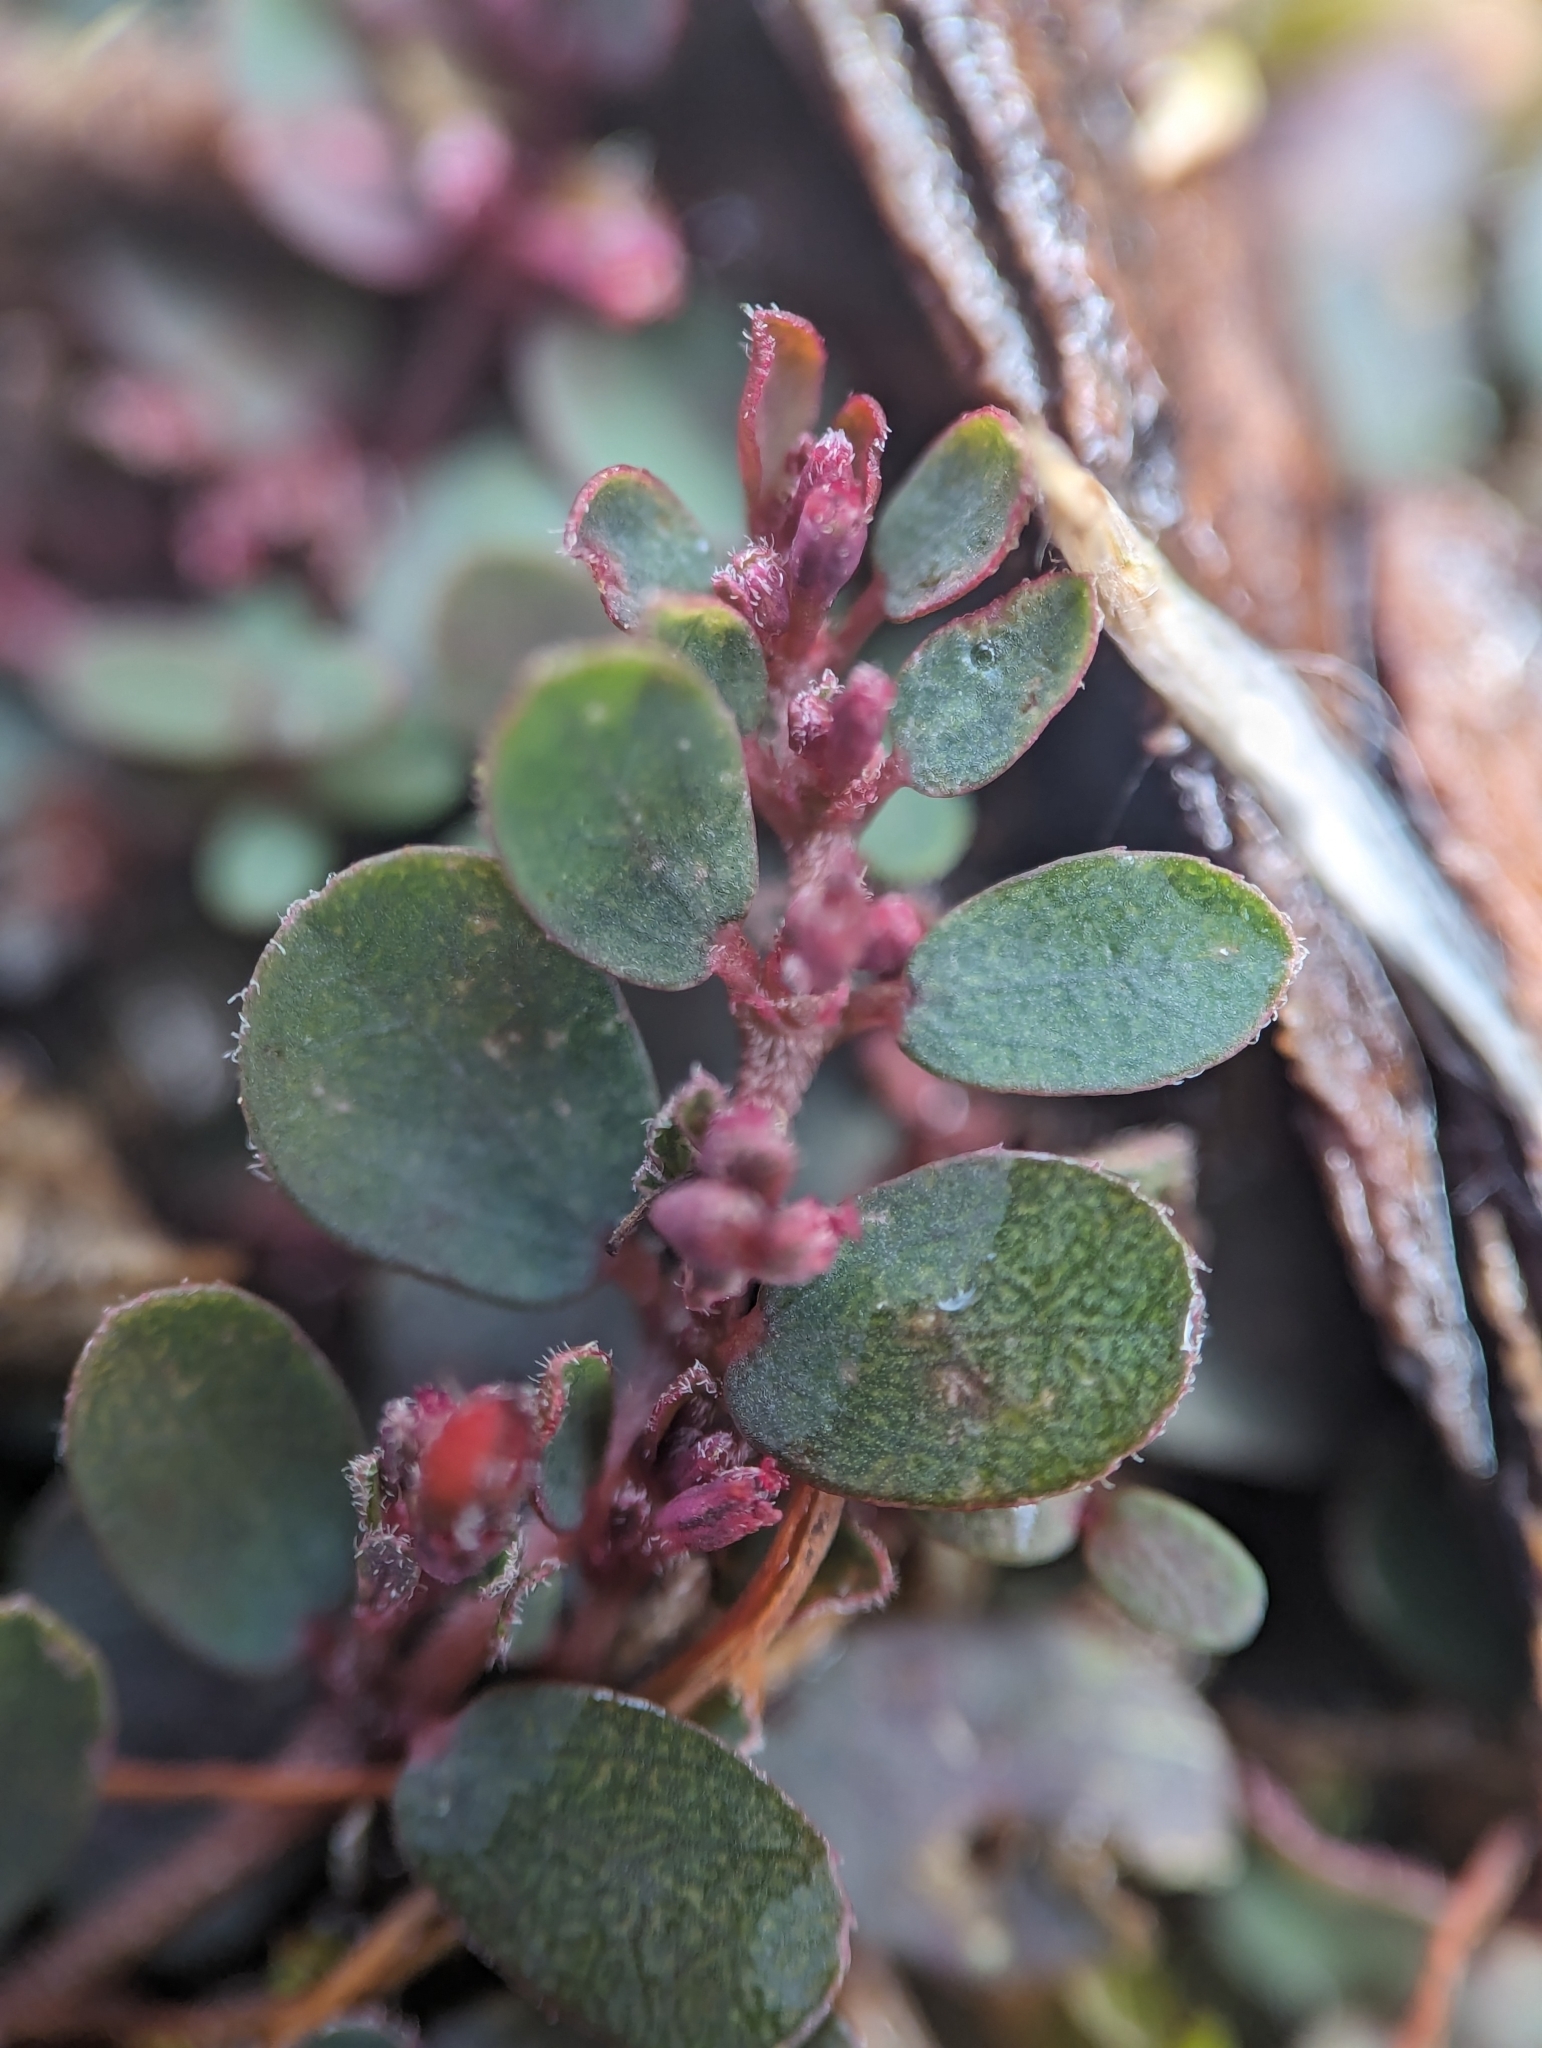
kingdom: Plantae
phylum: Tracheophyta
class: Magnoliopsida
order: Malpighiales
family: Euphorbiaceae
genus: Euphorbia
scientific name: Euphorbia prostrata
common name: Prostrate sandmat
